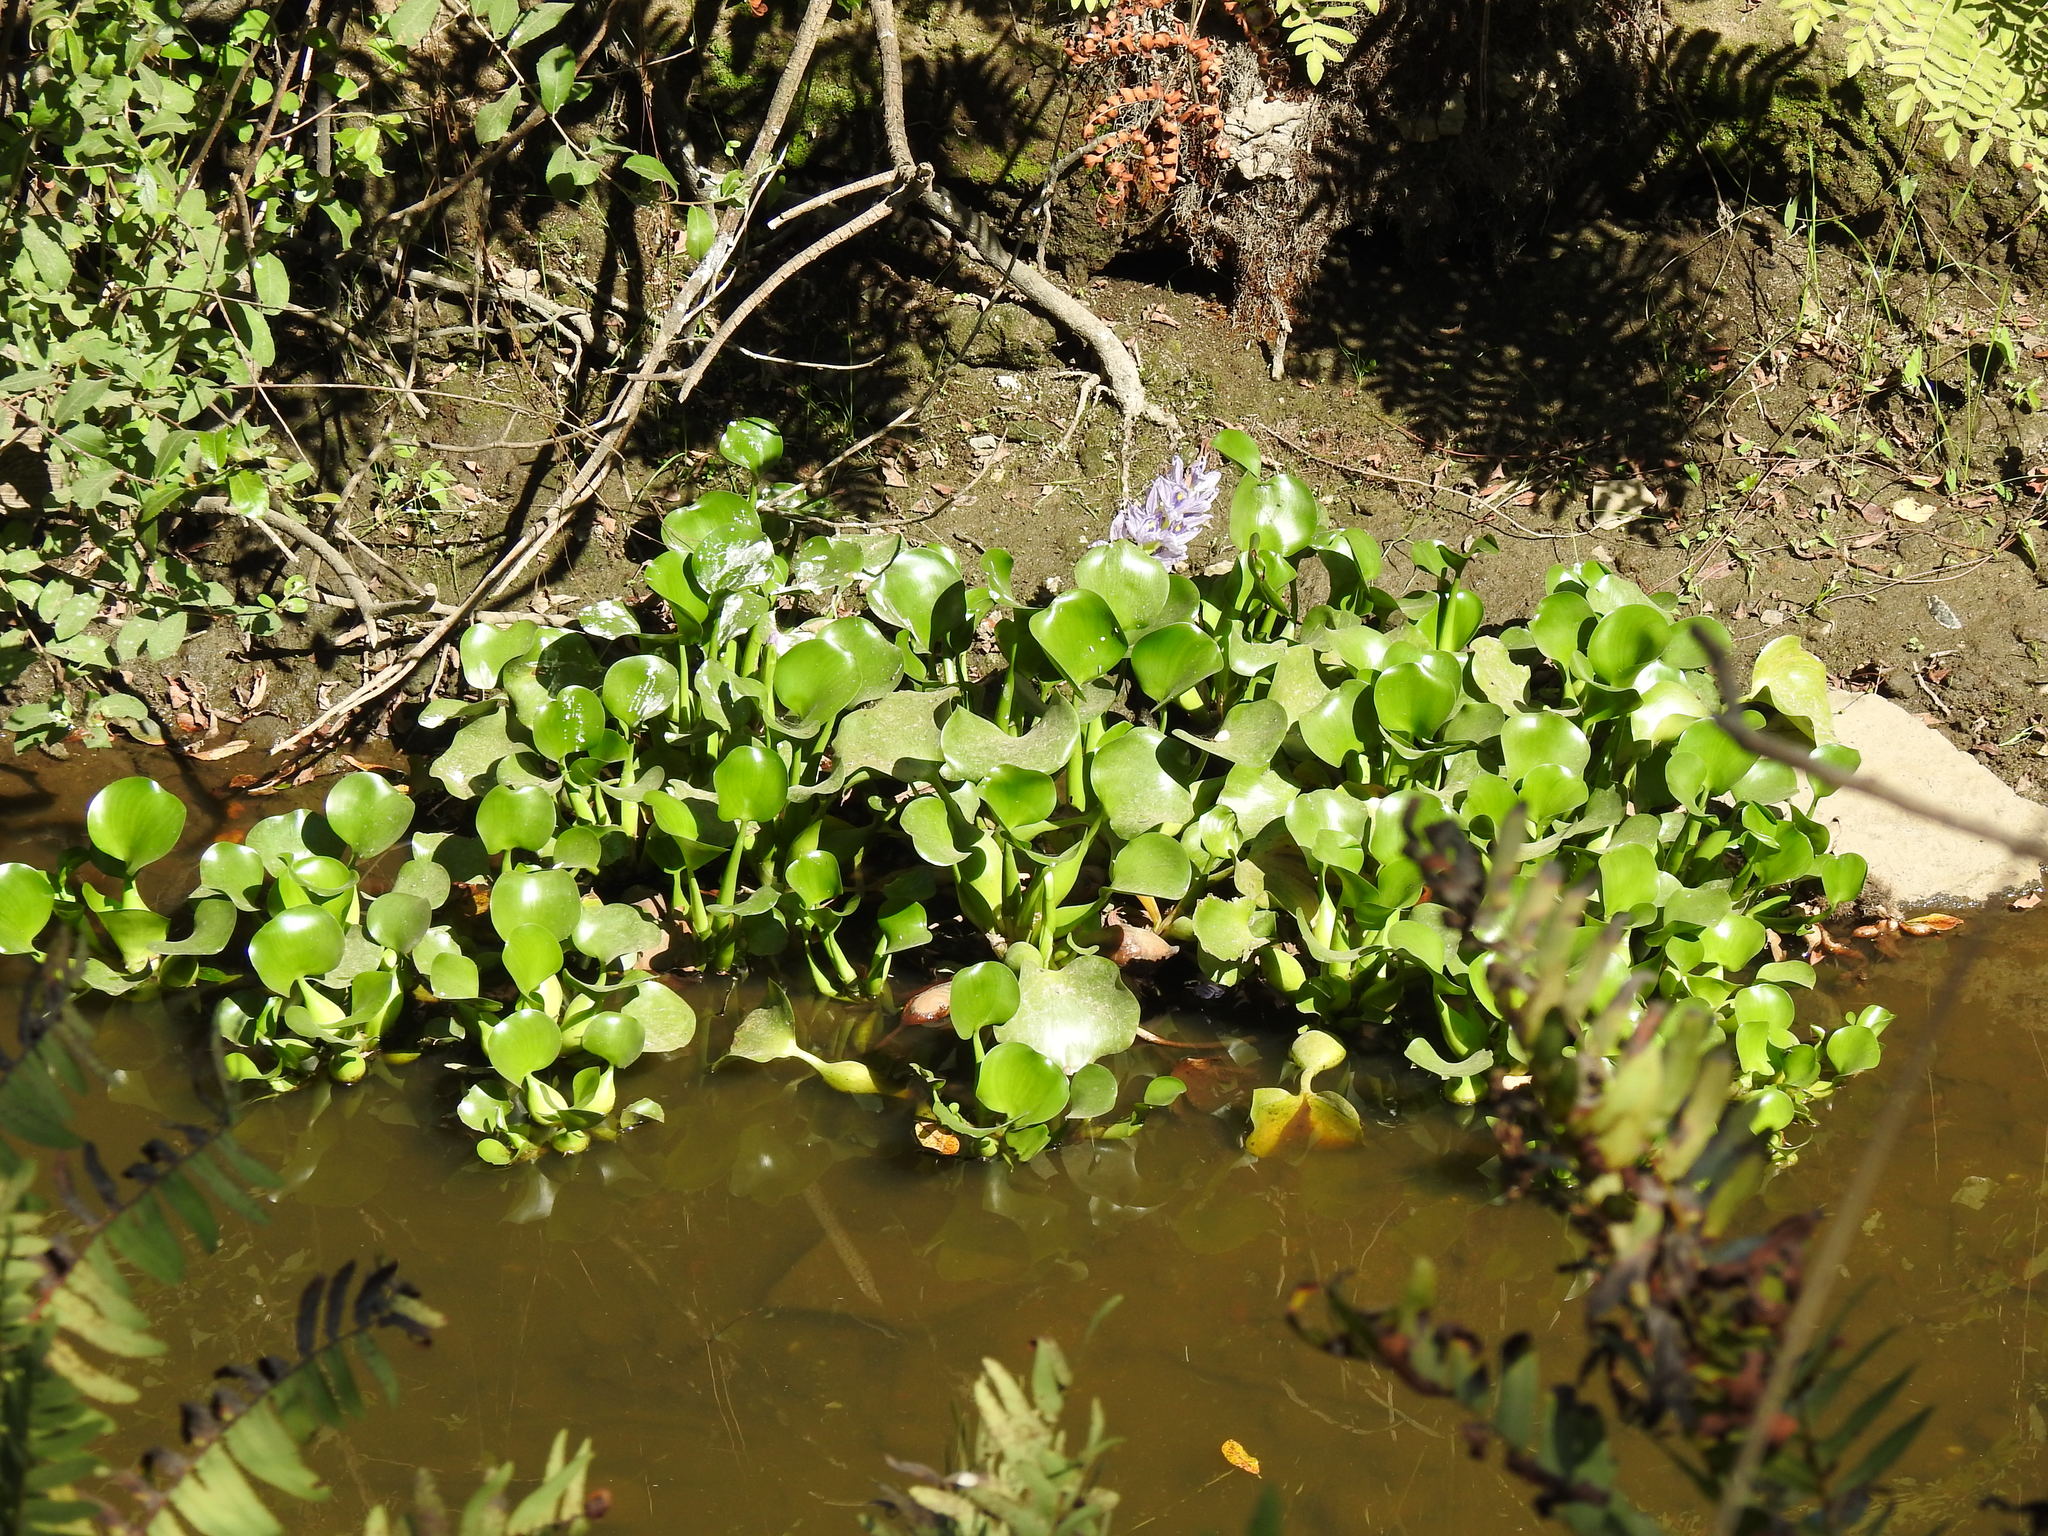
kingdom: Plantae
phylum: Tracheophyta
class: Liliopsida
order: Commelinales
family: Pontederiaceae
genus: Pontederia
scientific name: Pontederia crassipes
